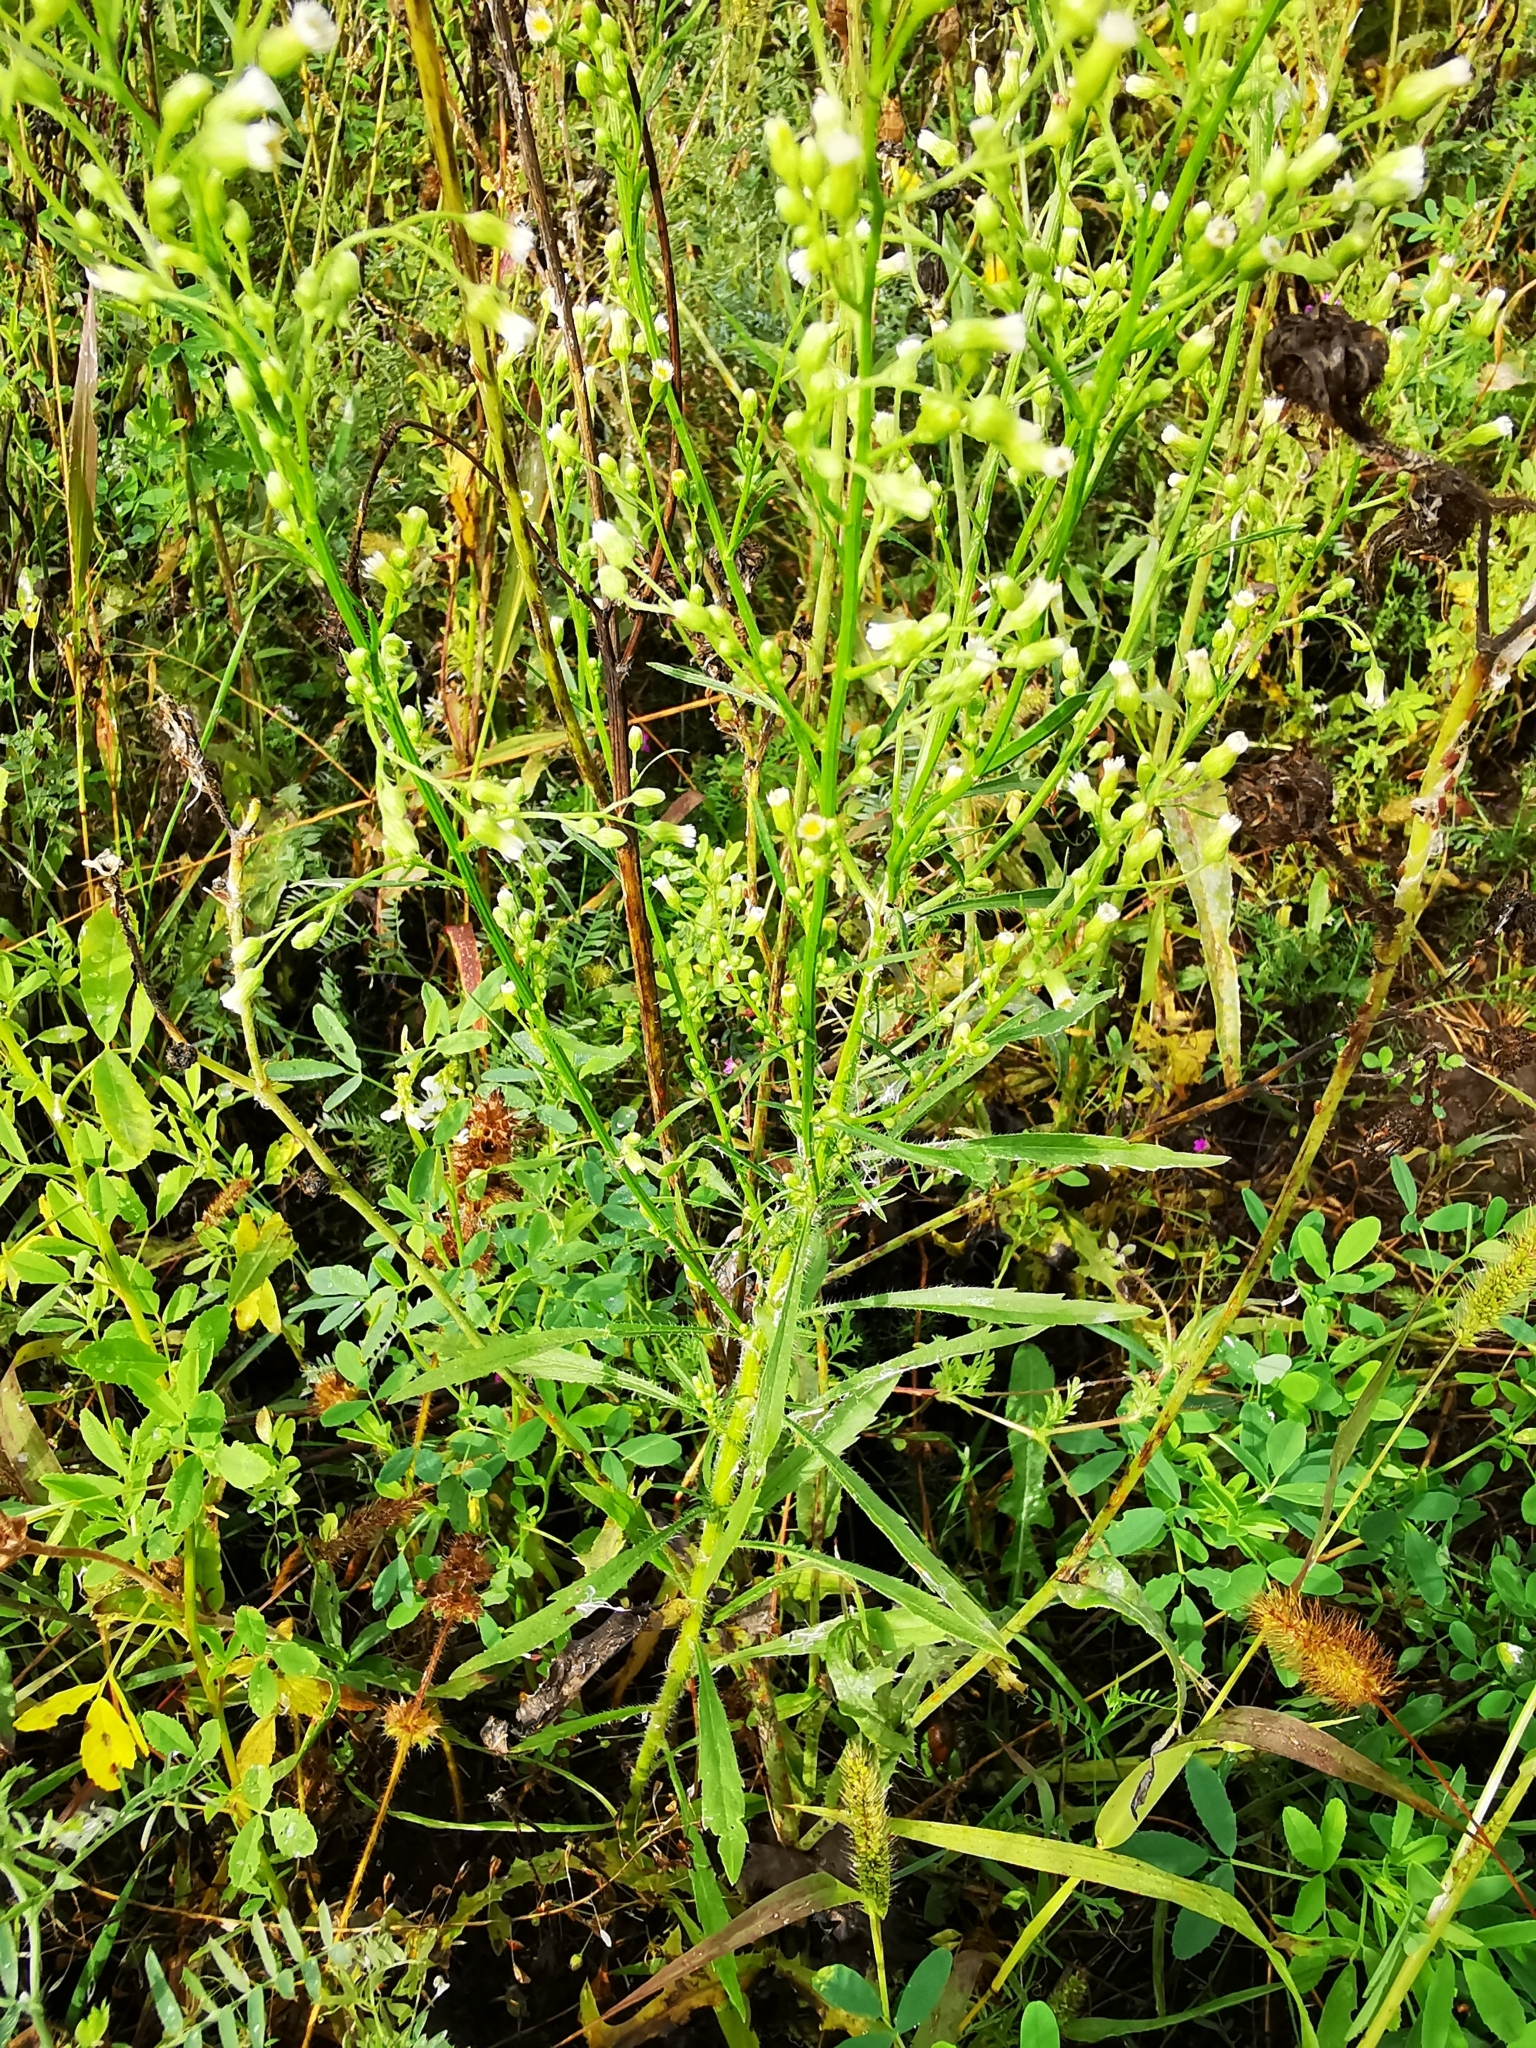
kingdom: Plantae
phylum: Tracheophyta
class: Magnoliopsida
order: Asterales
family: Asteraceae
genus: Erigeron
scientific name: Erigeron canadensis
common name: Canadian fleabane
